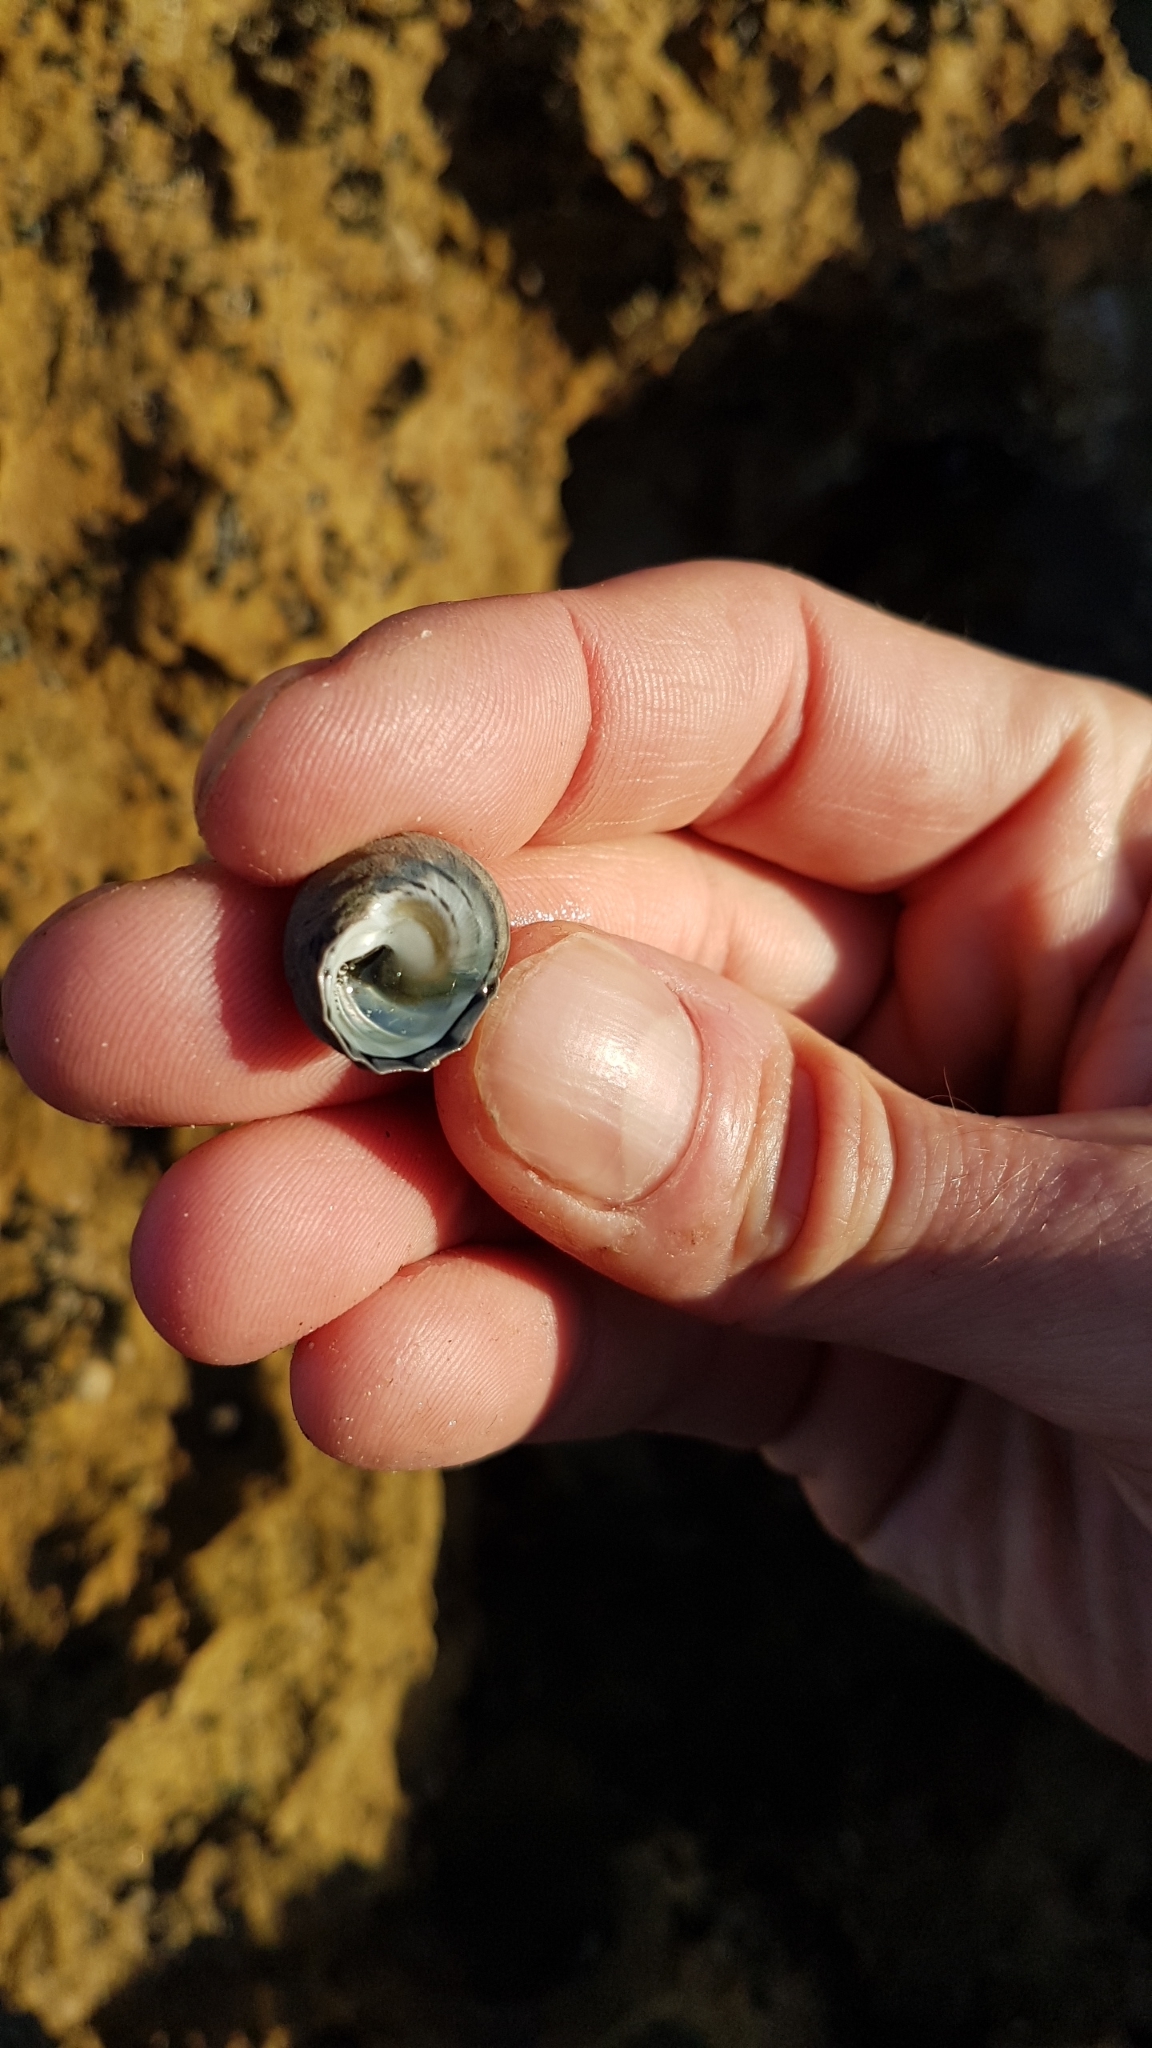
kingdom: Animalia
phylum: Mollusca
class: Gastropoda
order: Trochida
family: Trochidae
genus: Austrocochlea
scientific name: Austrocochlea constricta
